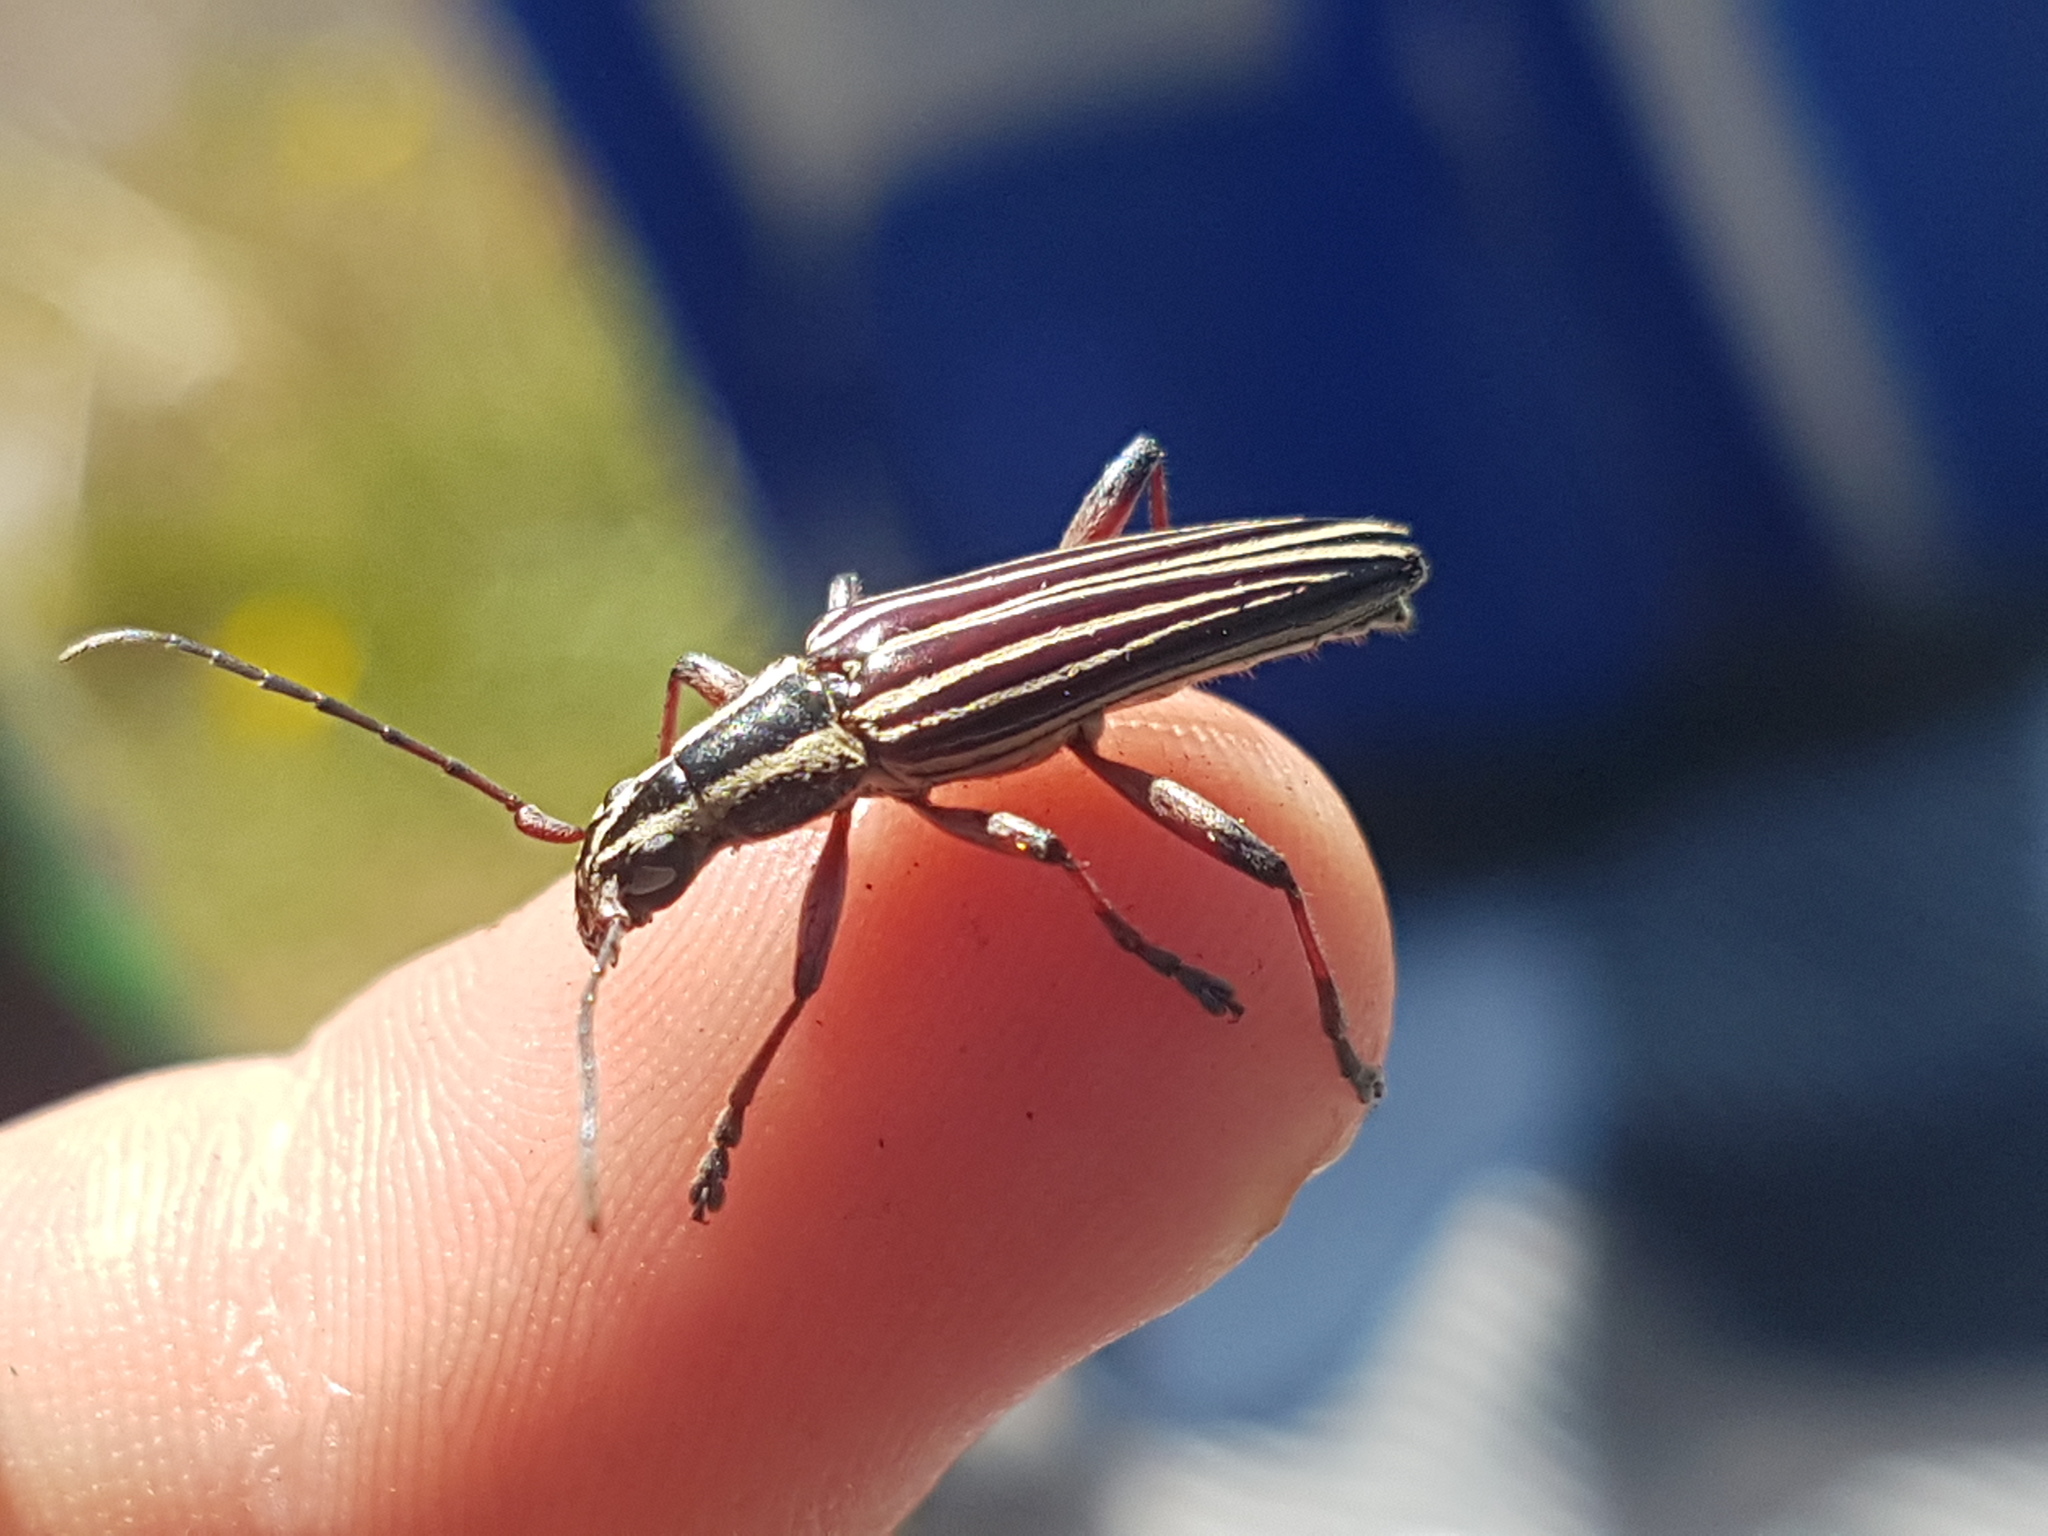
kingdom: Animalia
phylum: Arthropoda
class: Insecta
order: Coleoptera
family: Cerambycidae
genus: Coptomma
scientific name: Coptomma lineatum
